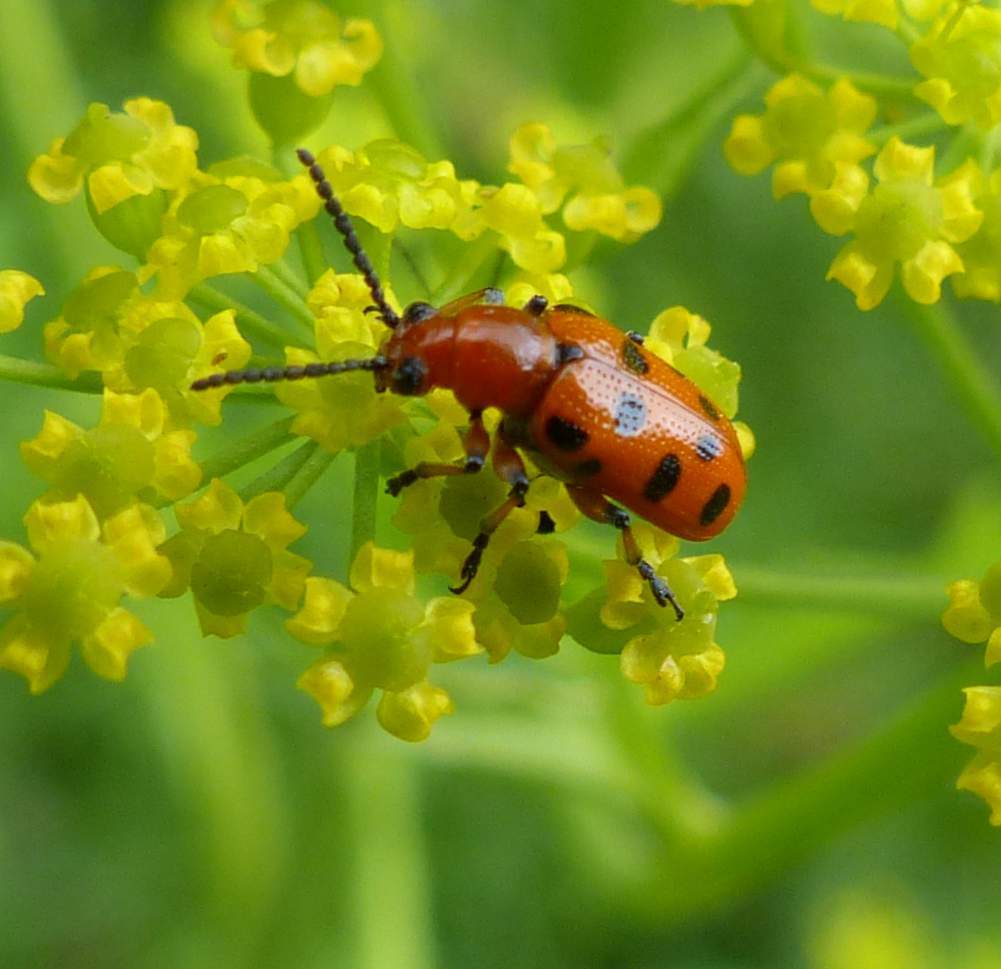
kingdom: Animalia
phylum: Arthropoda
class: Insecta
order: Coleoptera
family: Chrysomelidae
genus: Crioceris
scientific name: Crioceris duodecimpunctata
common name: Twelve-spotted asparagus beetle
